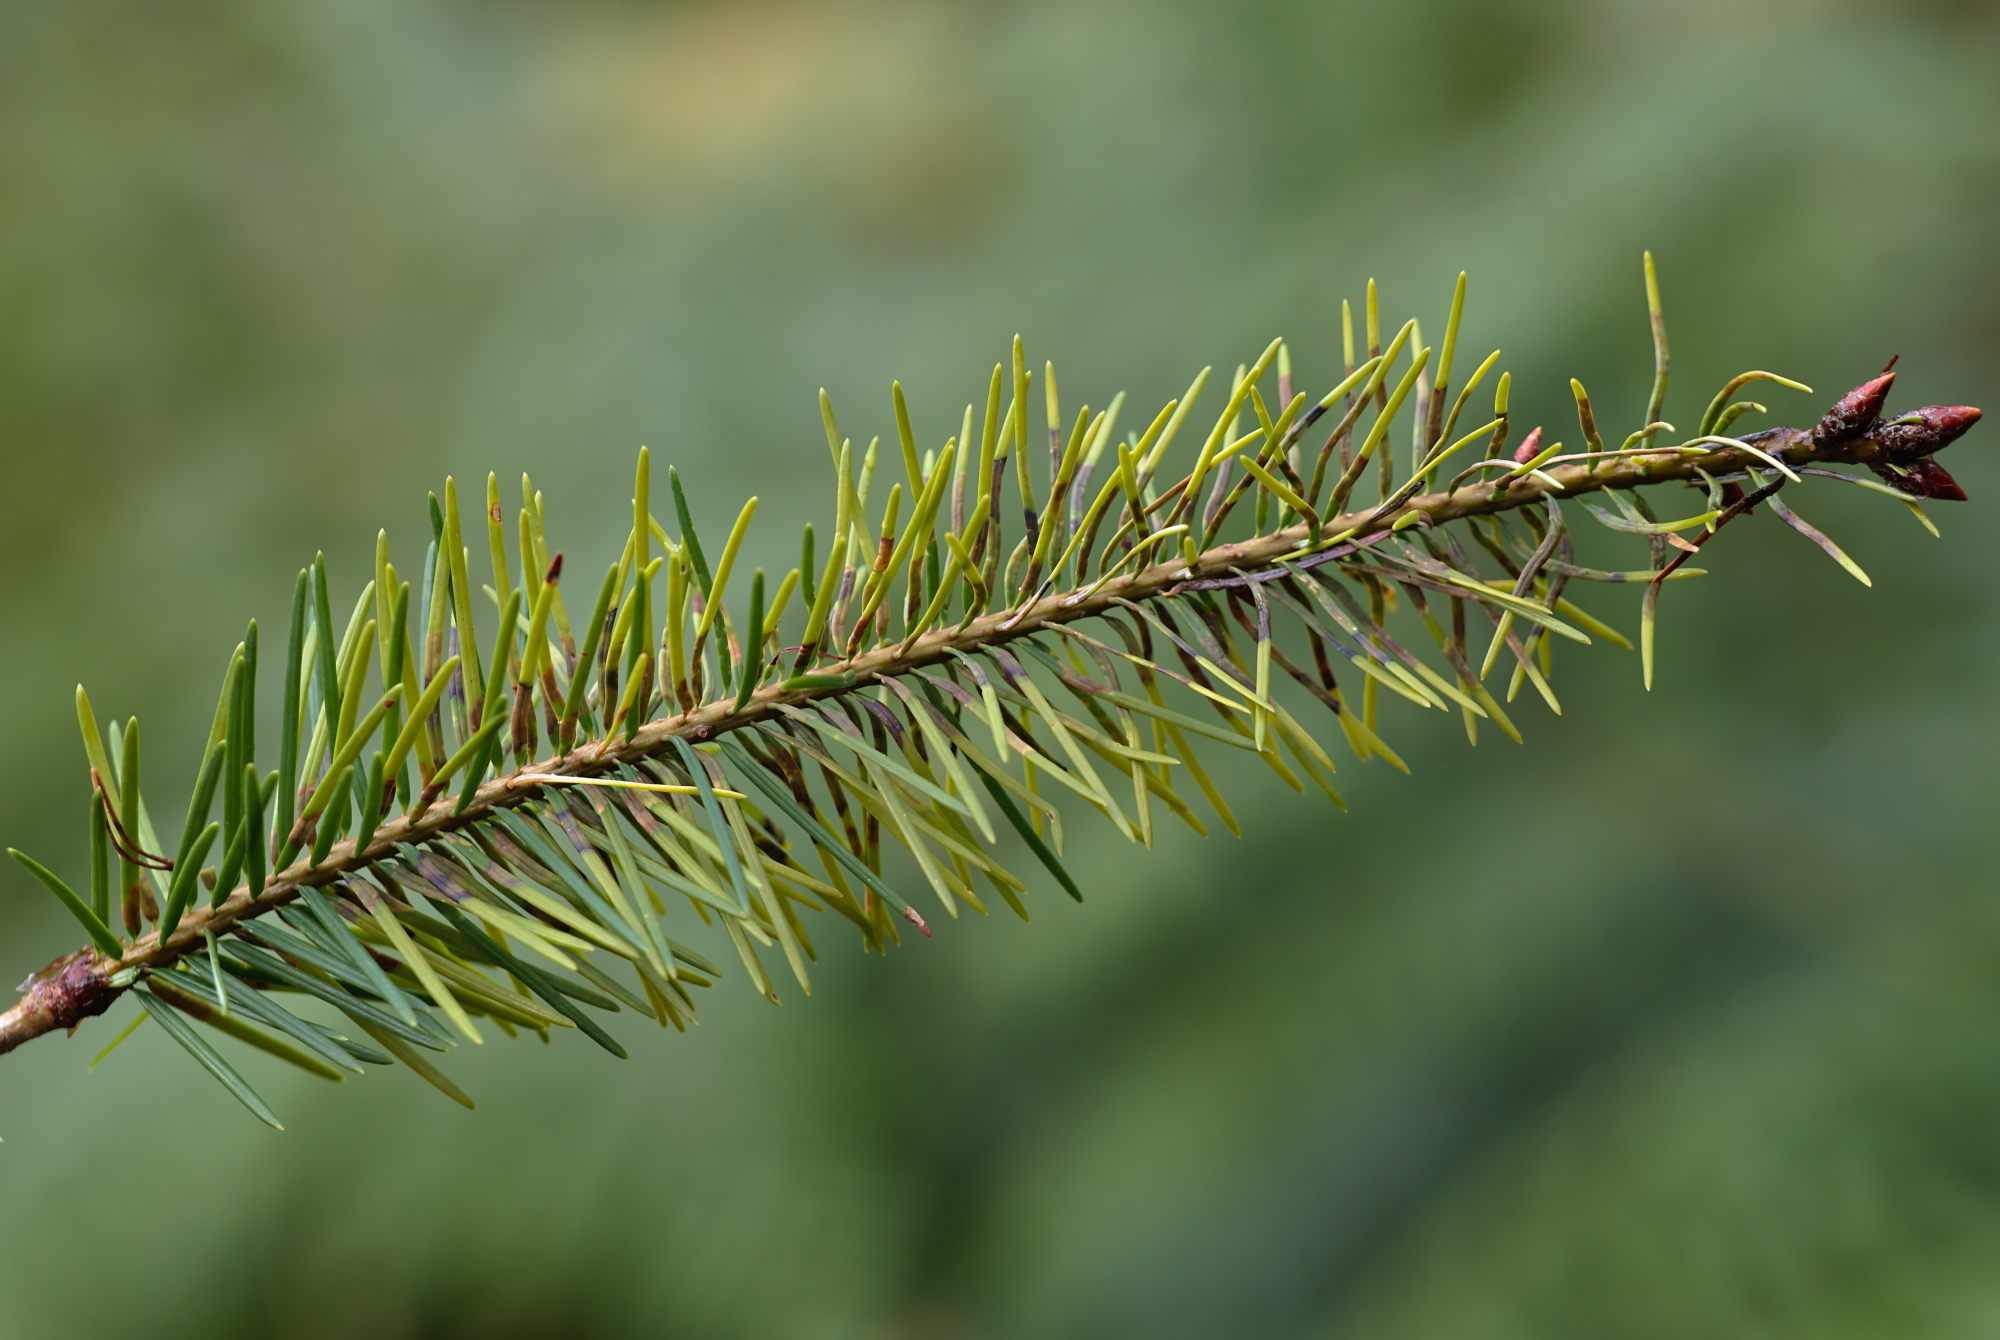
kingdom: Animalia
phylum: Arthropoda
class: Insecta
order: Diptera
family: Cecidomyiidae
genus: Contarinia
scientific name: Contarinia pseudotsugae
